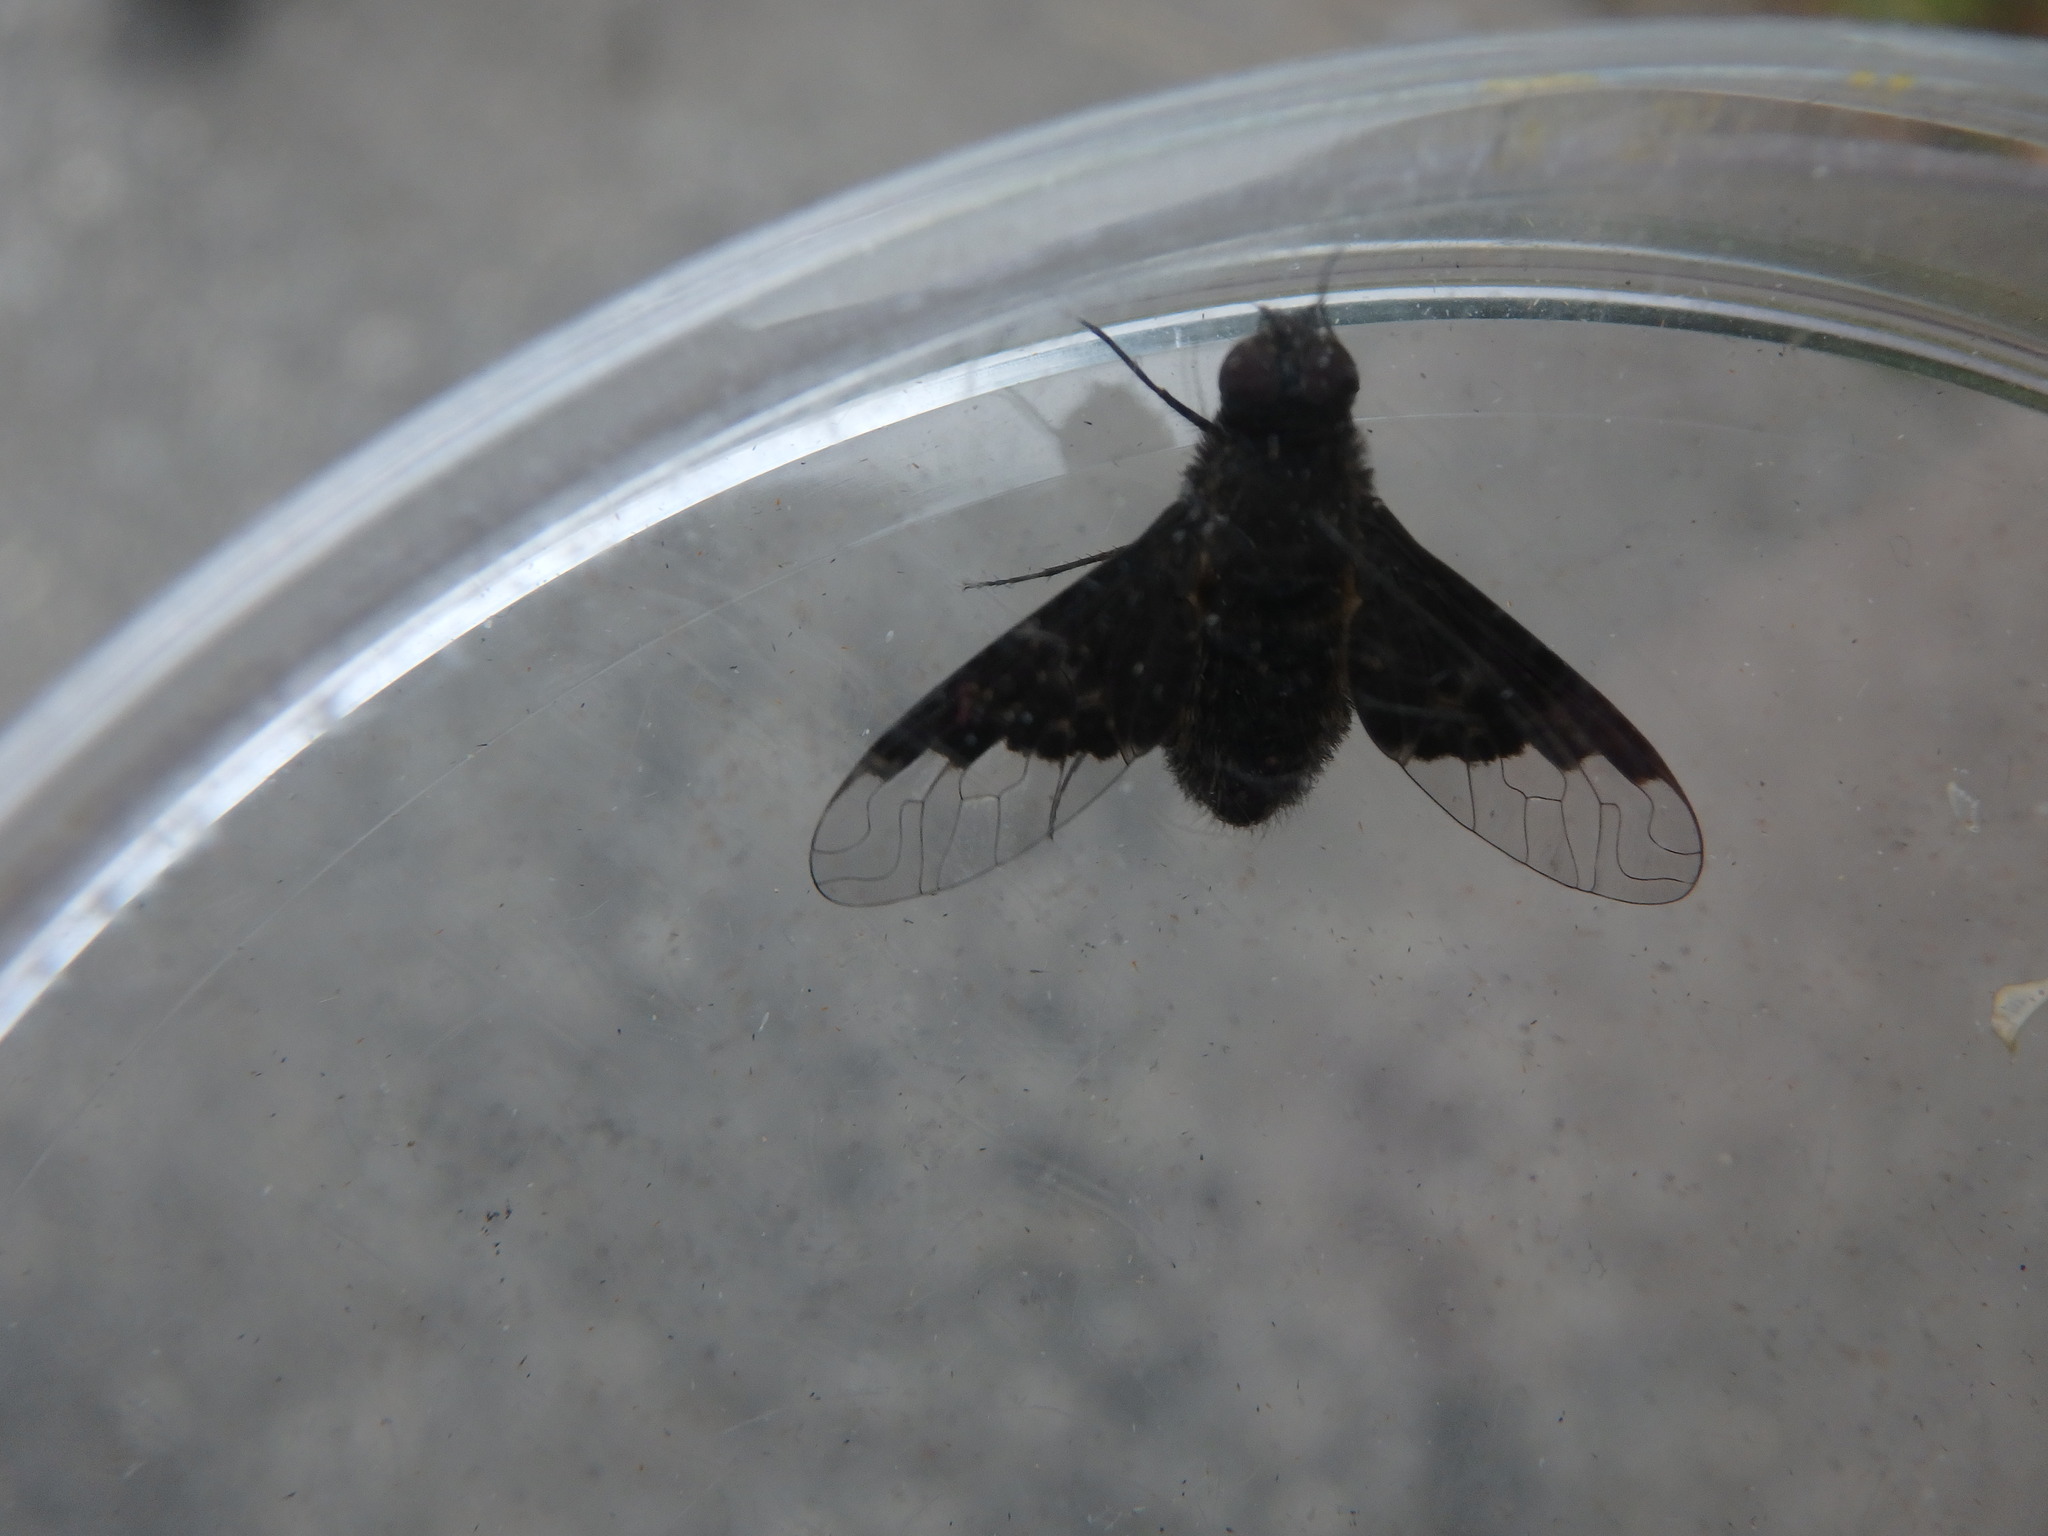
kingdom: Animalia
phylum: Arthropoda
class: Insecta
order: Diptera
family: Bombyliidae
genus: Hemipenthes
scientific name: Hemipenthes morio
